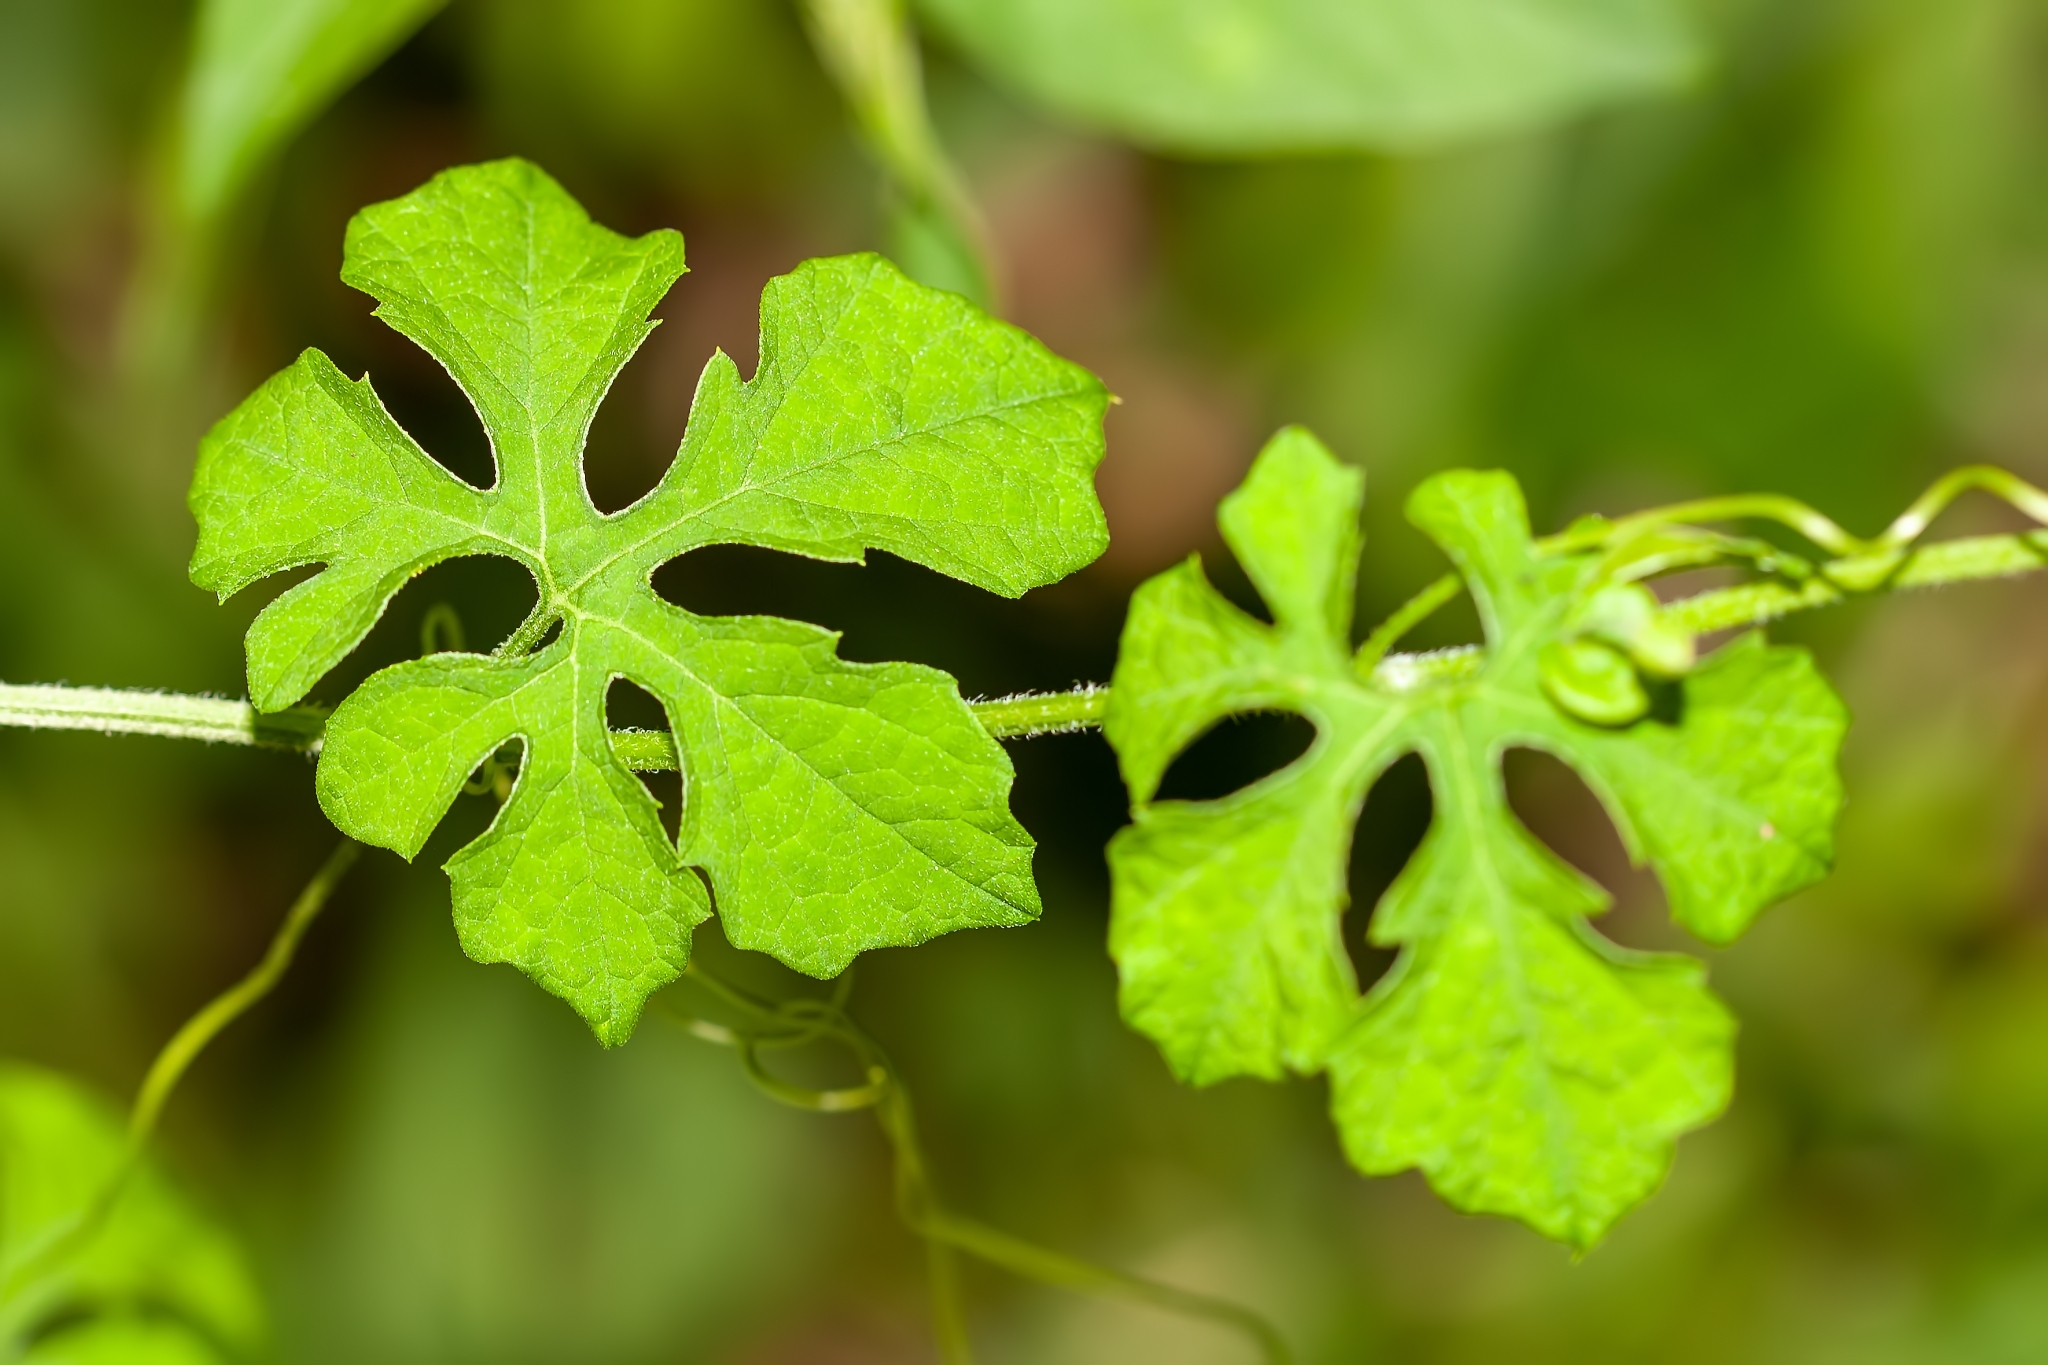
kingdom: Plantae
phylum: Tracheophyta
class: Magnoliopsida
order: Cucurbitales
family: Cucurbitaceae
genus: Momordica
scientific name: Momordica charantia
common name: Balsampear
